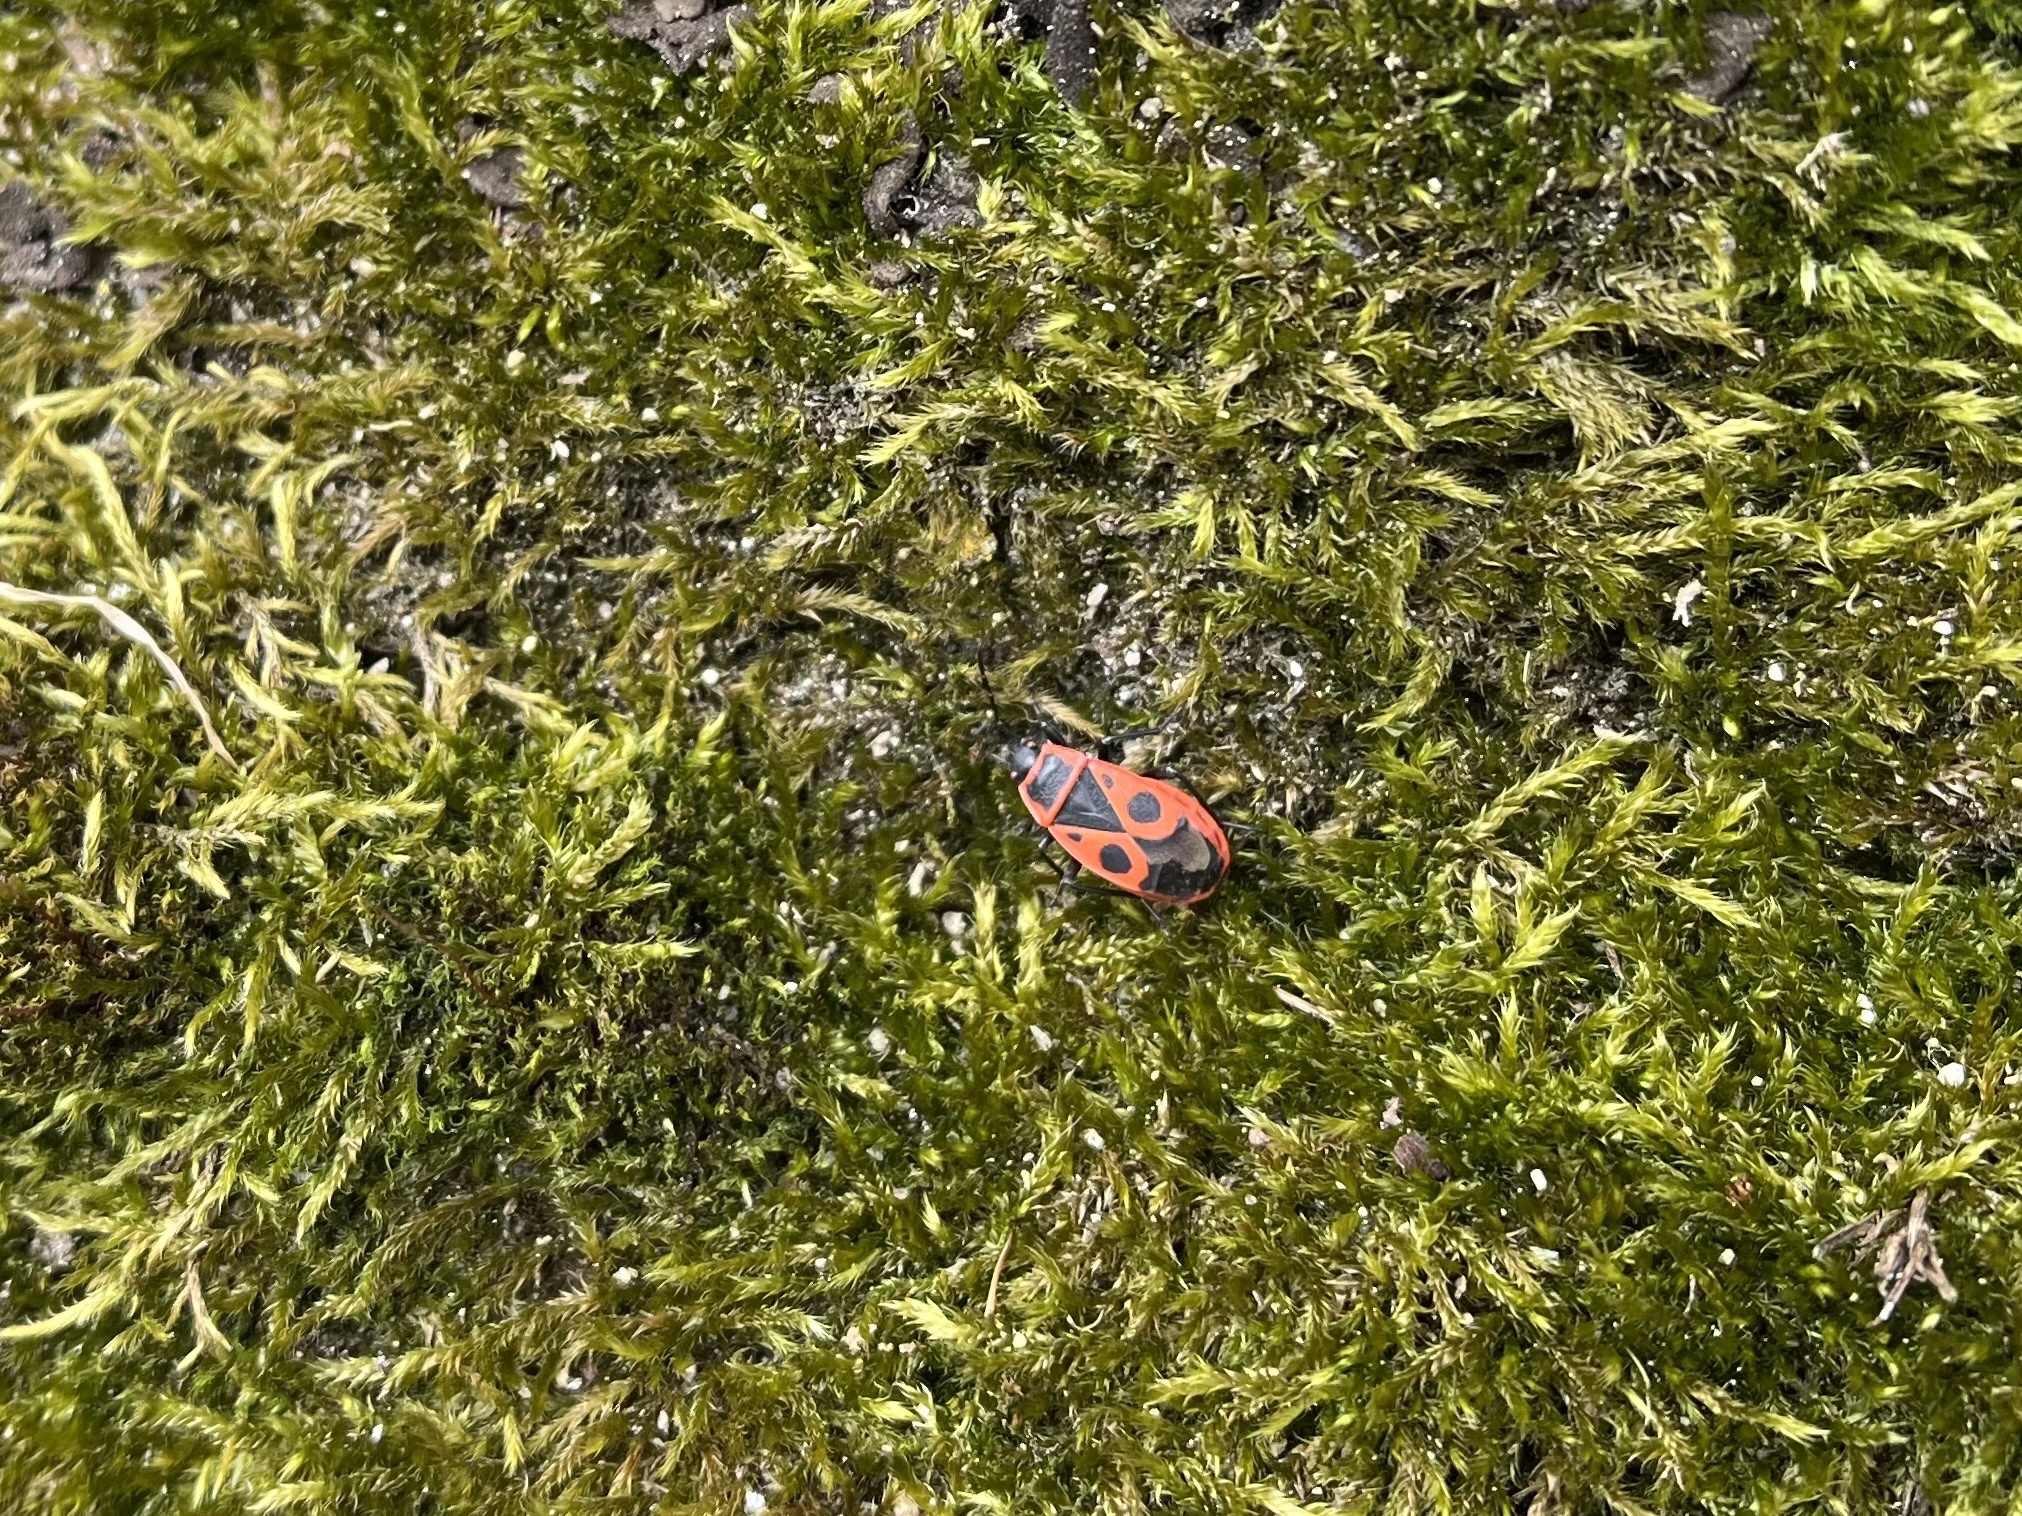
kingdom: Animalia
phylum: Arthropoda
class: Insecta
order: Hemiptera
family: Pyrrhocoridae
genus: Pyrrhocoris
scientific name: Pyrrhocoris apterus
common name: Firebug
